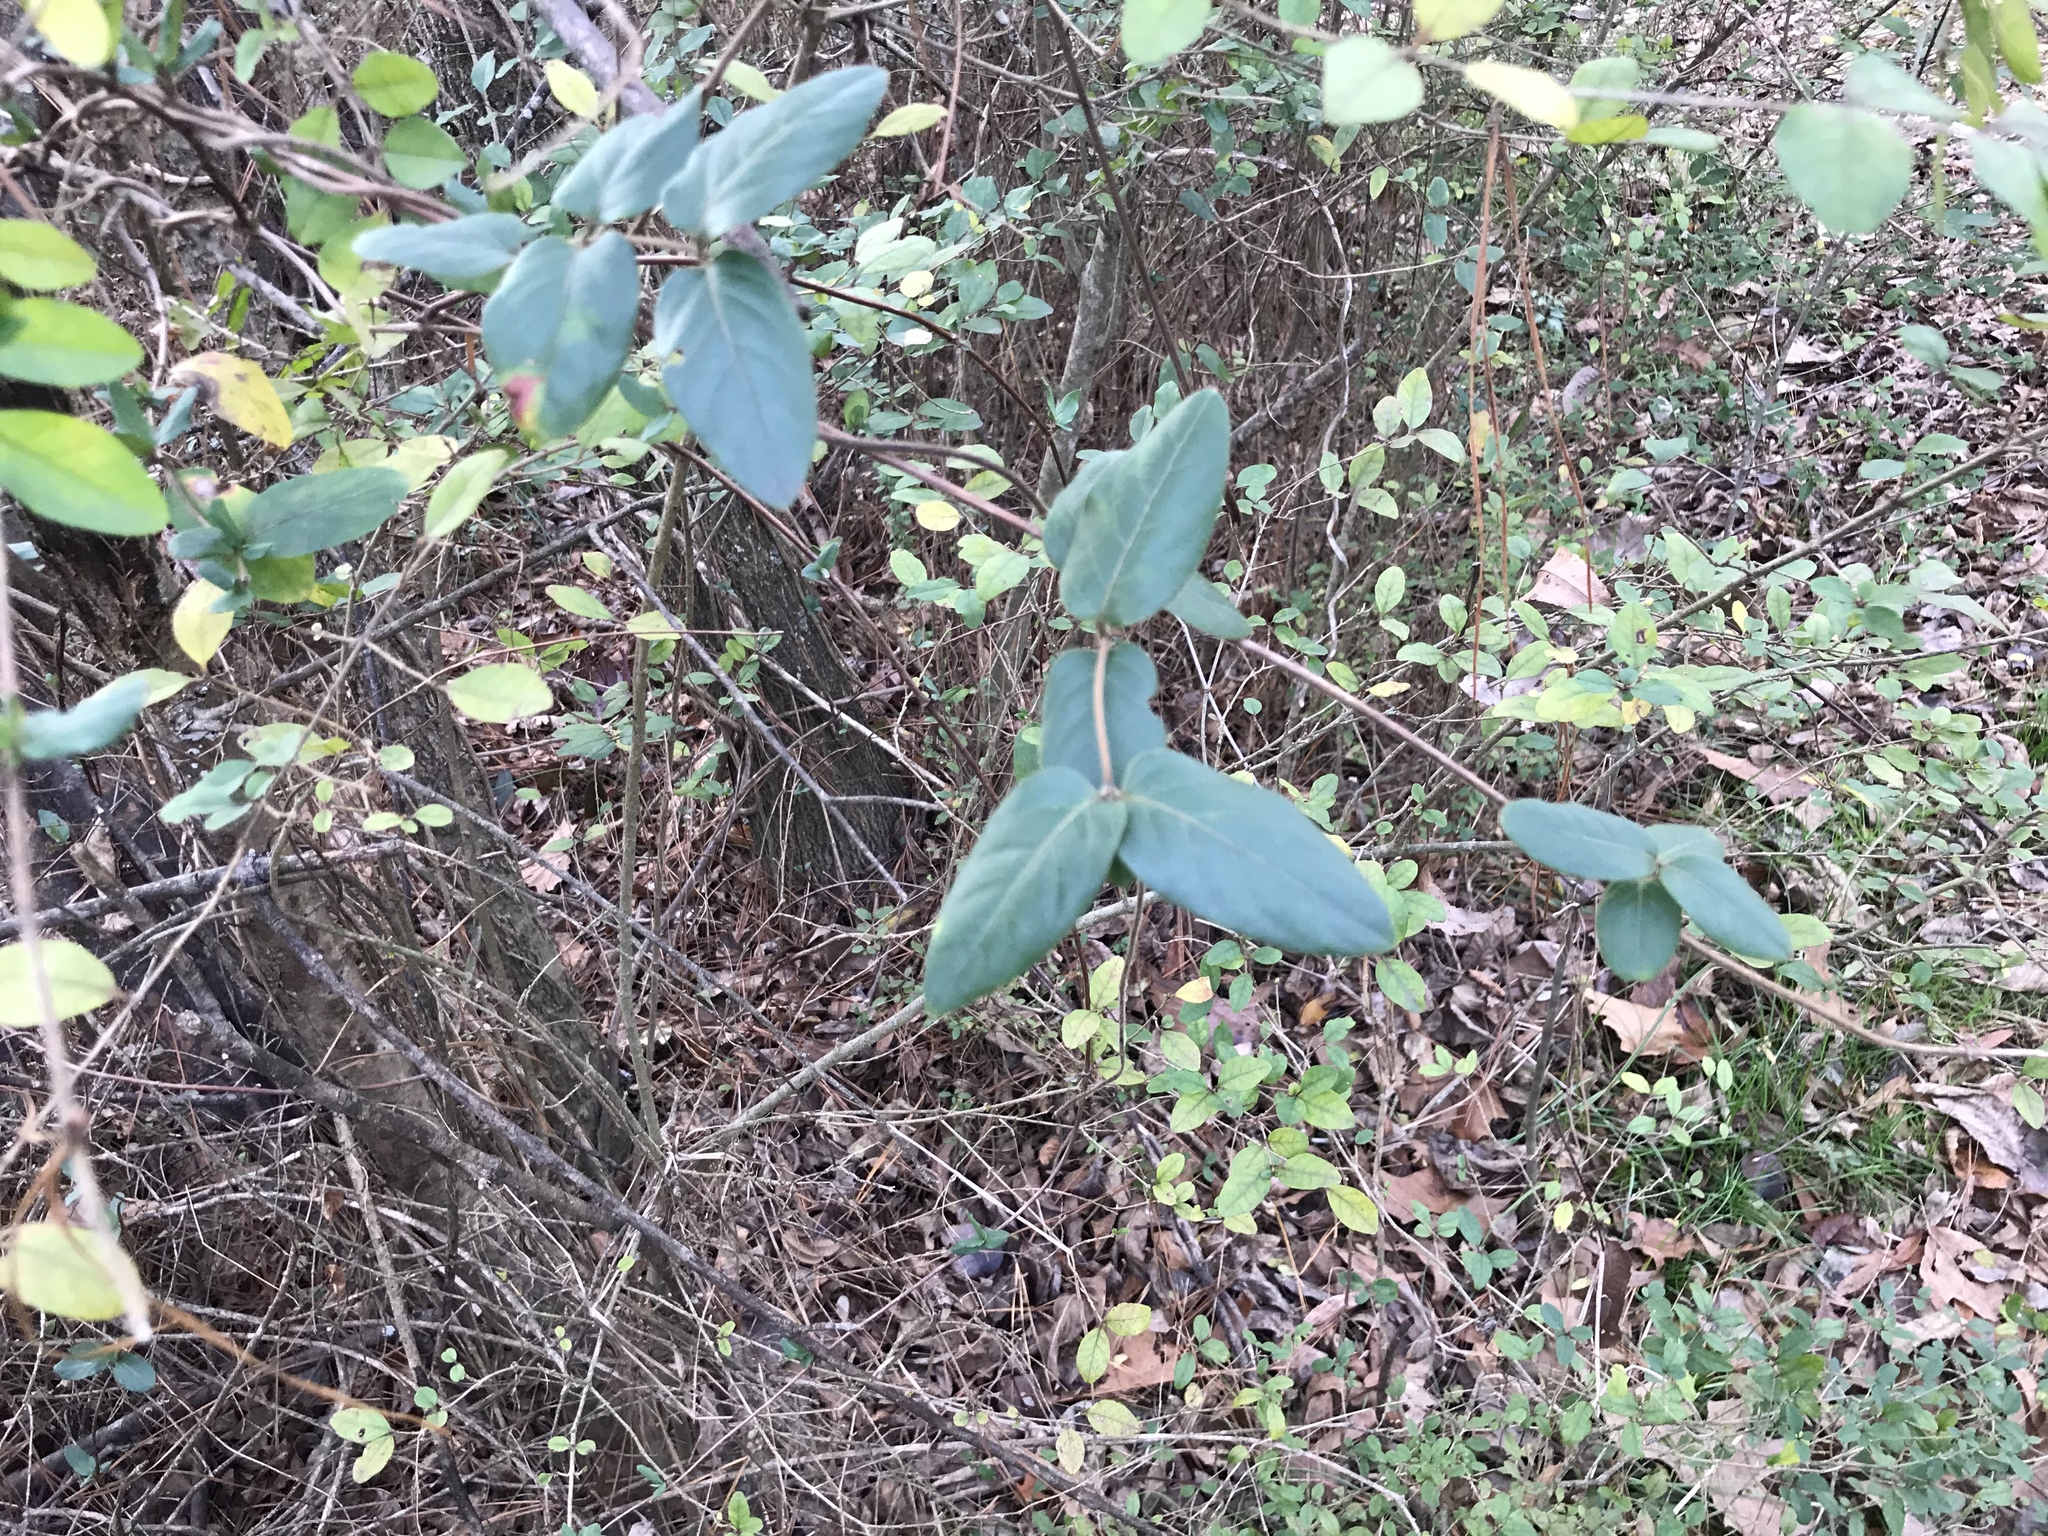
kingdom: Plantae
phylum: Tracheophyta
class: Magnoliopsida
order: Dipsacales
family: Caprifoliaceae
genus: Lonicera
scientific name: Lonicera japonica
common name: Japanese honeysuckle
